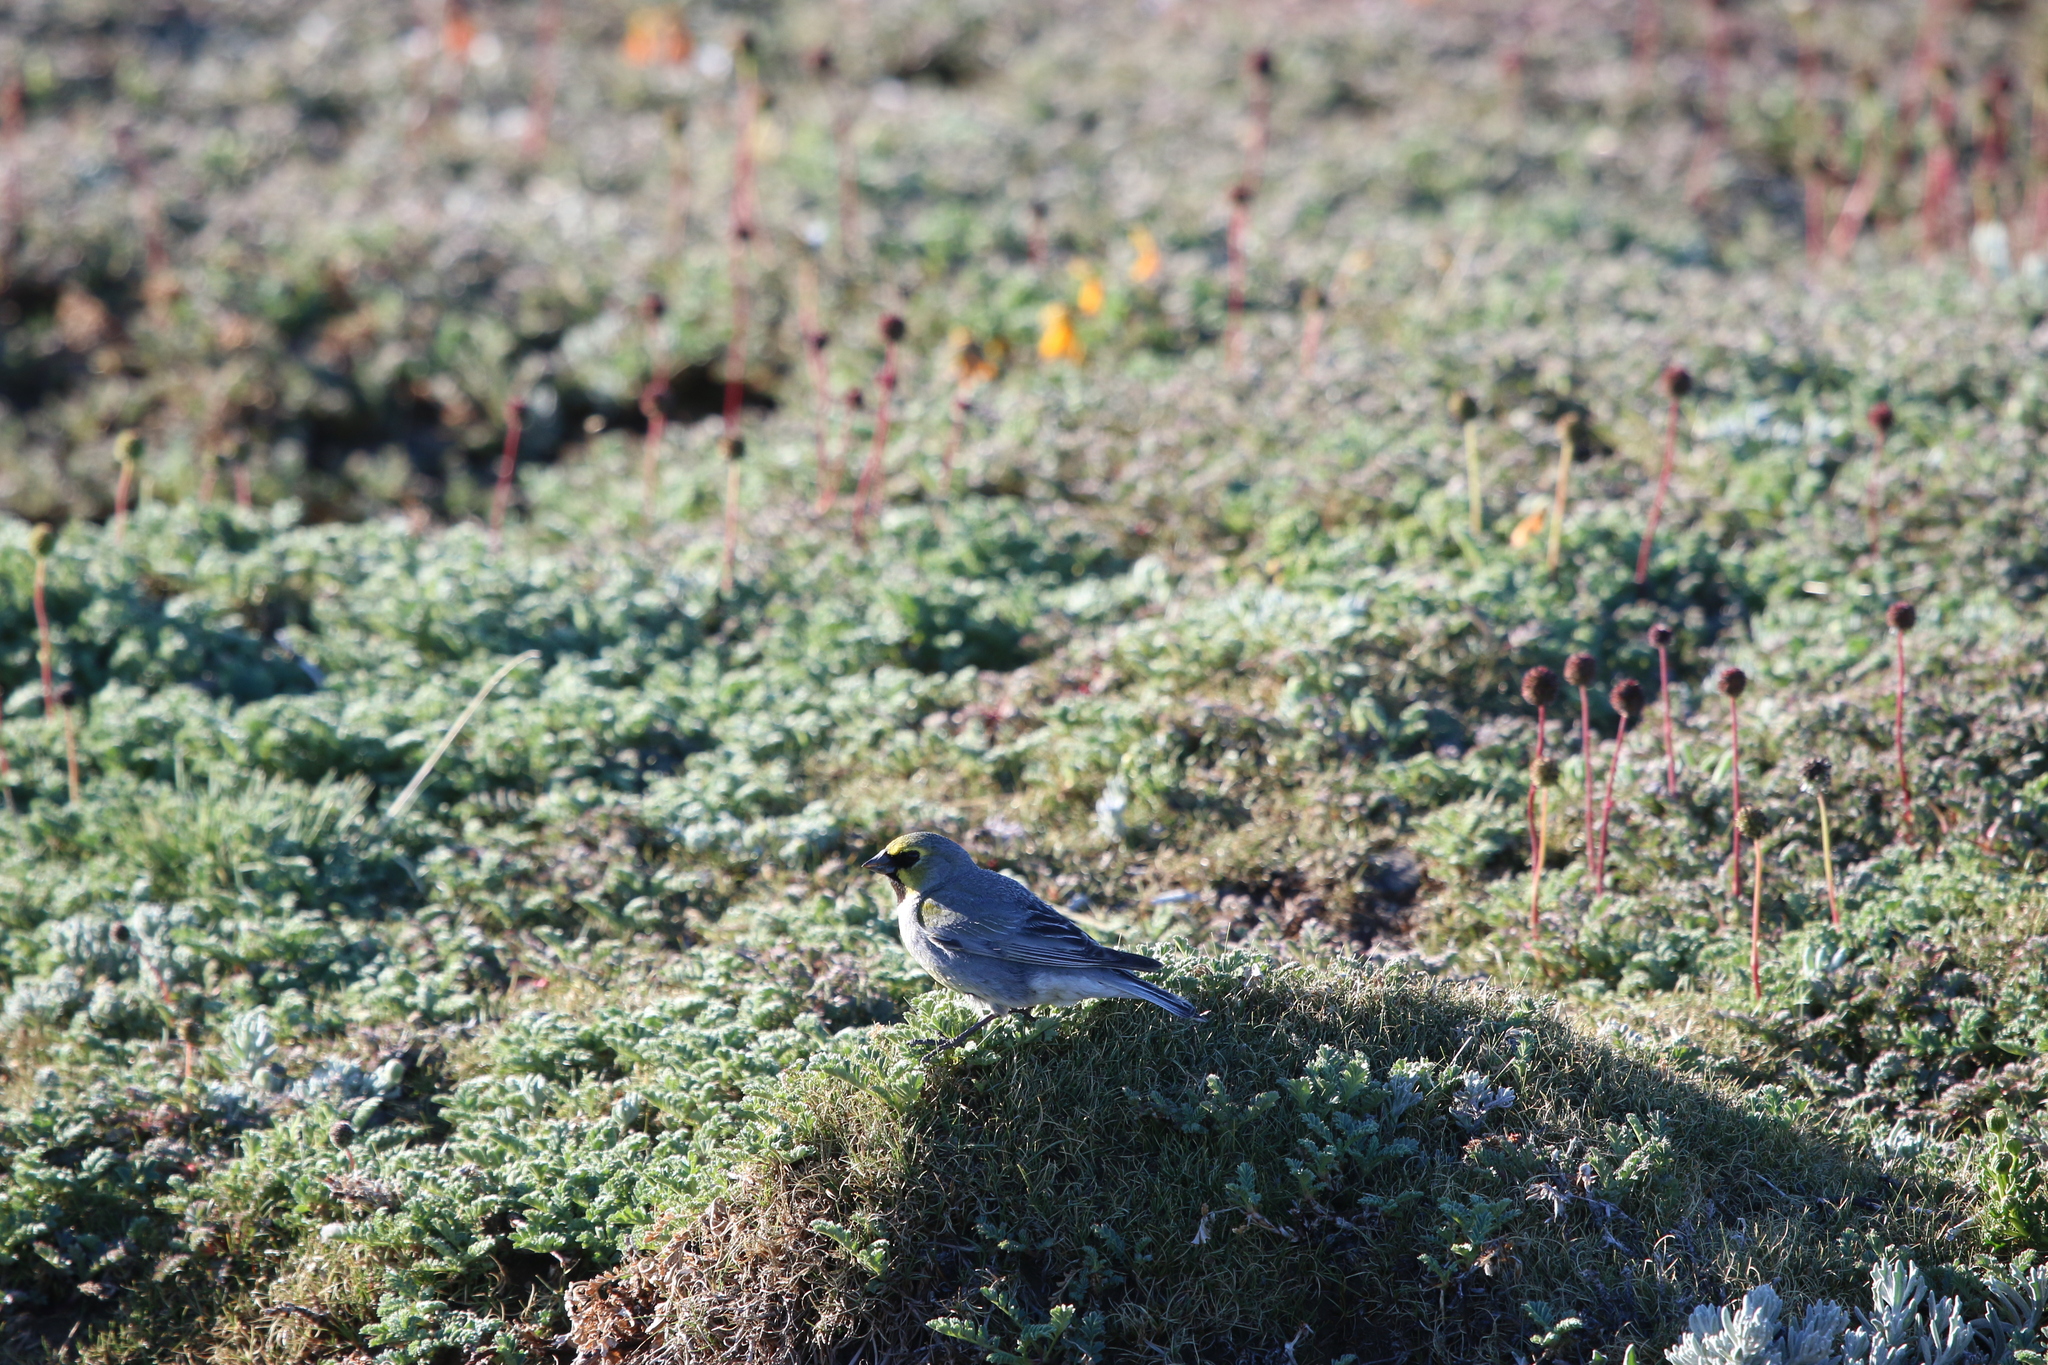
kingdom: Animalia
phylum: Chordata
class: Aves
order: Passeriformes
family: Thraupidae
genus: Melanodera
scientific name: Melanodera xanthogramma
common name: Yellow-bridled finch
